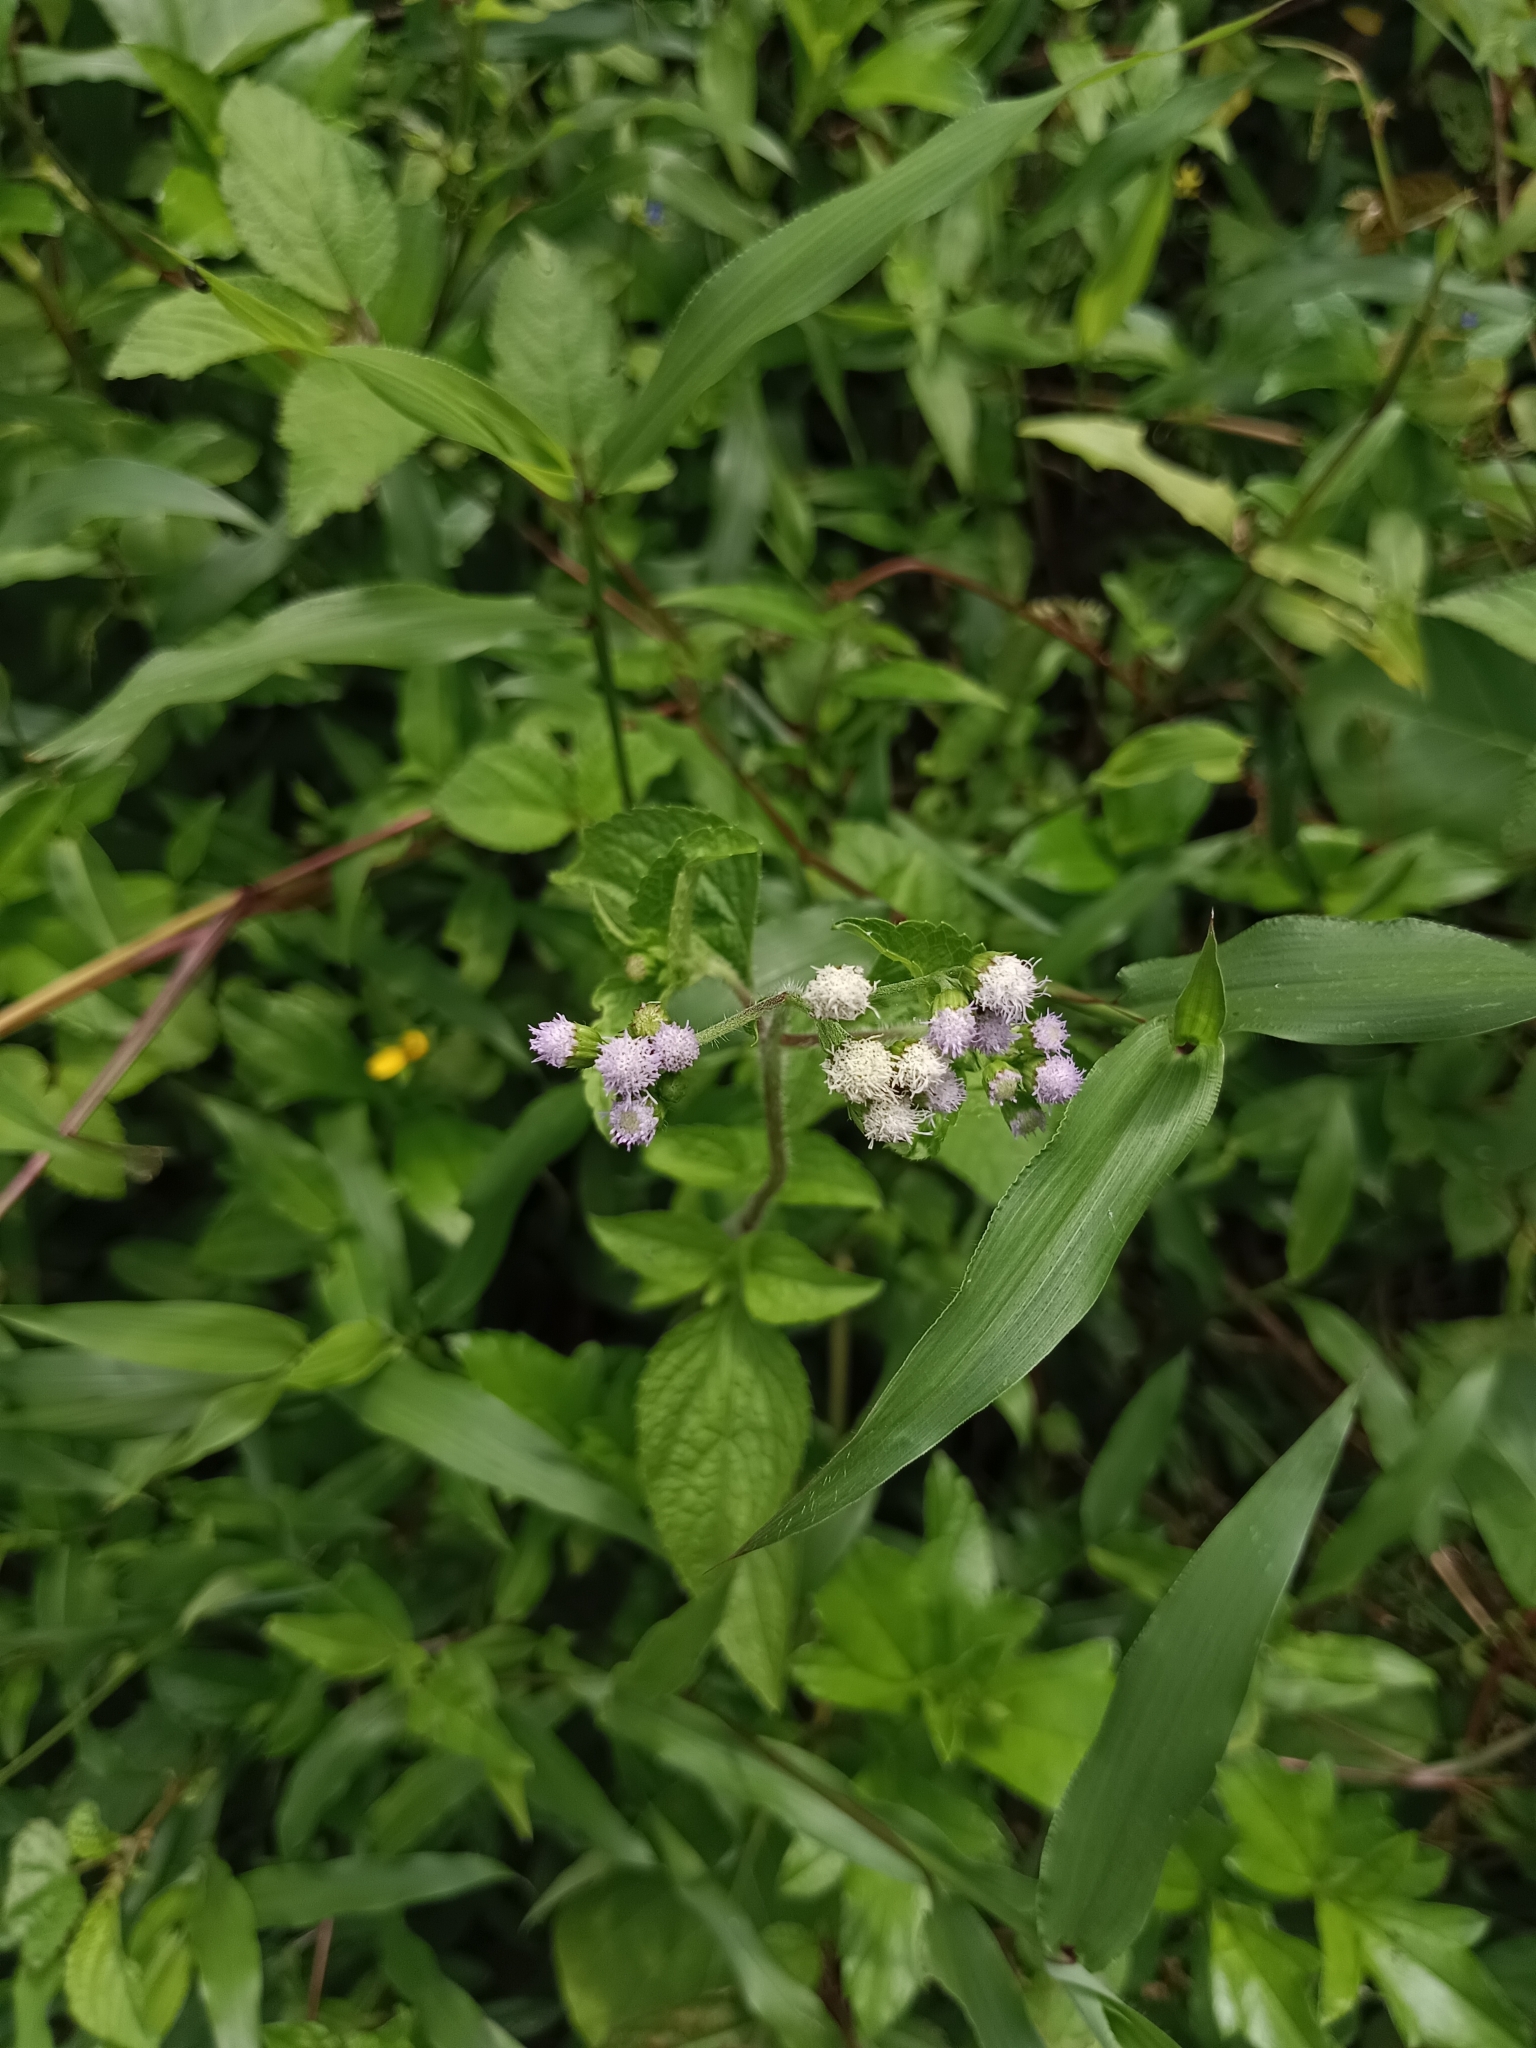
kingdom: Plantae
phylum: Tracheophyta
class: Magnoliopsida
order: Asterales
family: Asteraceae
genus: Ageratum
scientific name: Ageratum conyzoides
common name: Tropical whiteweed
